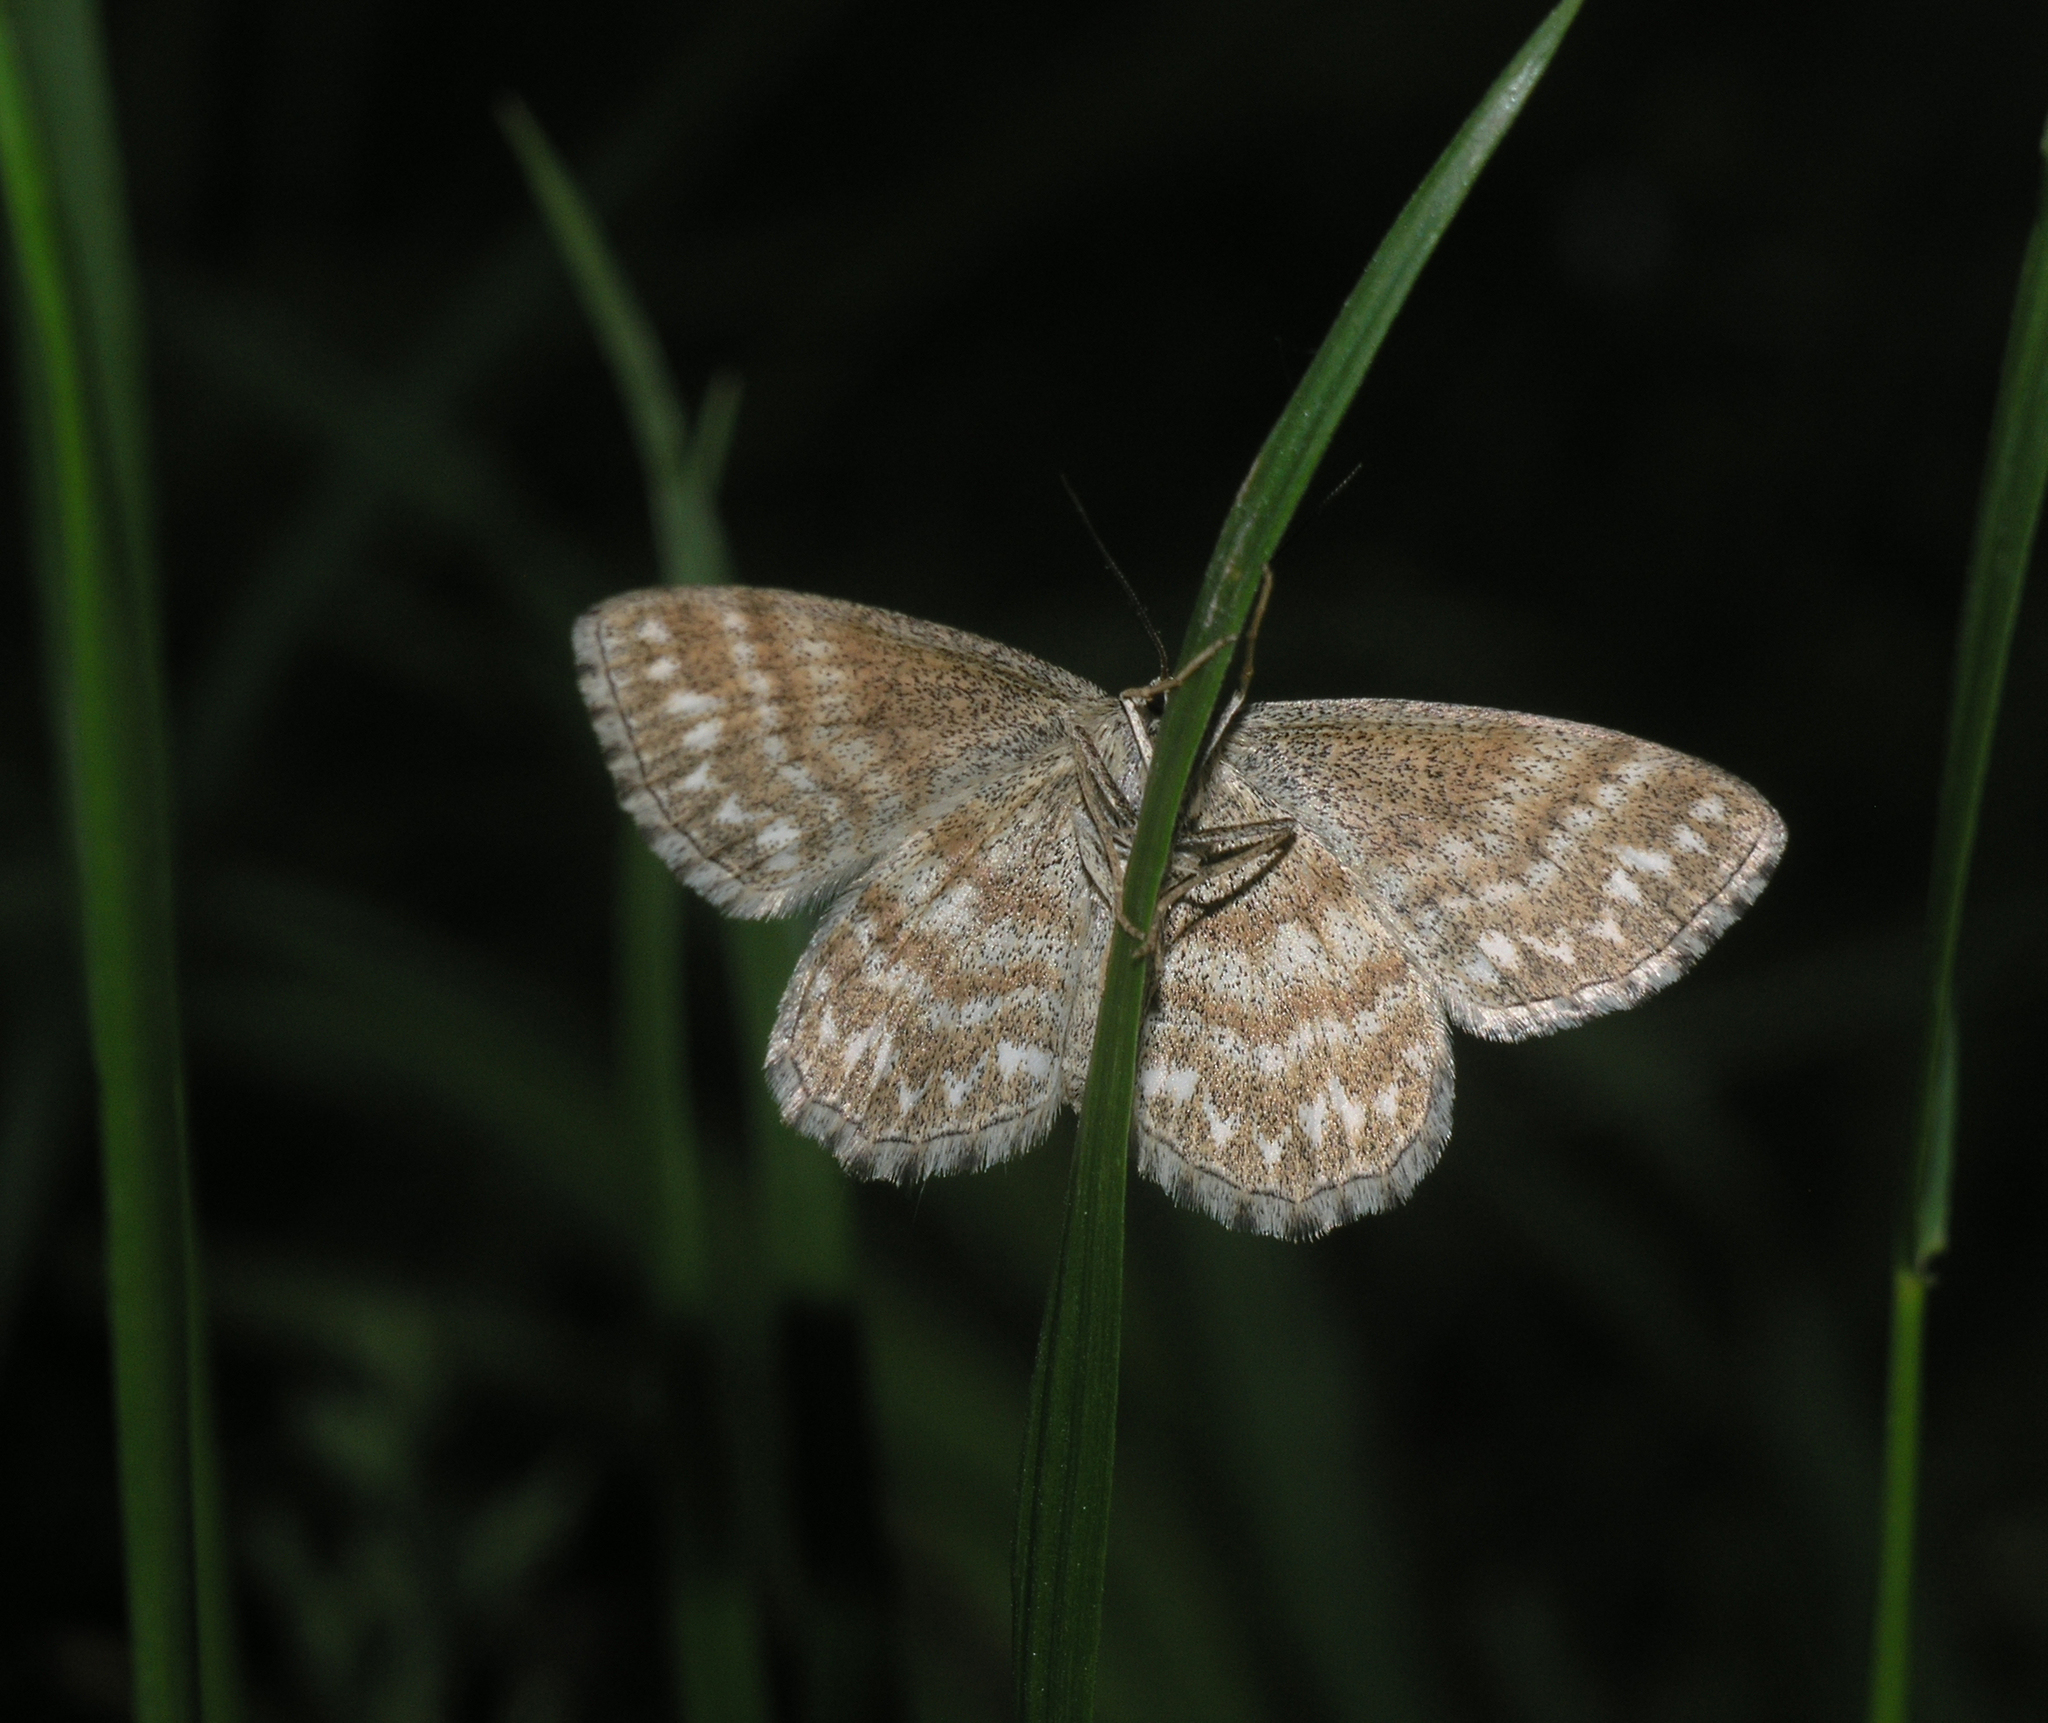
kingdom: Animalia
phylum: Arthropoda
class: Insecta
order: Lepidoptera
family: Geometridae
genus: Scopula
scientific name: Scopula immorata
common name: Lewes wave
